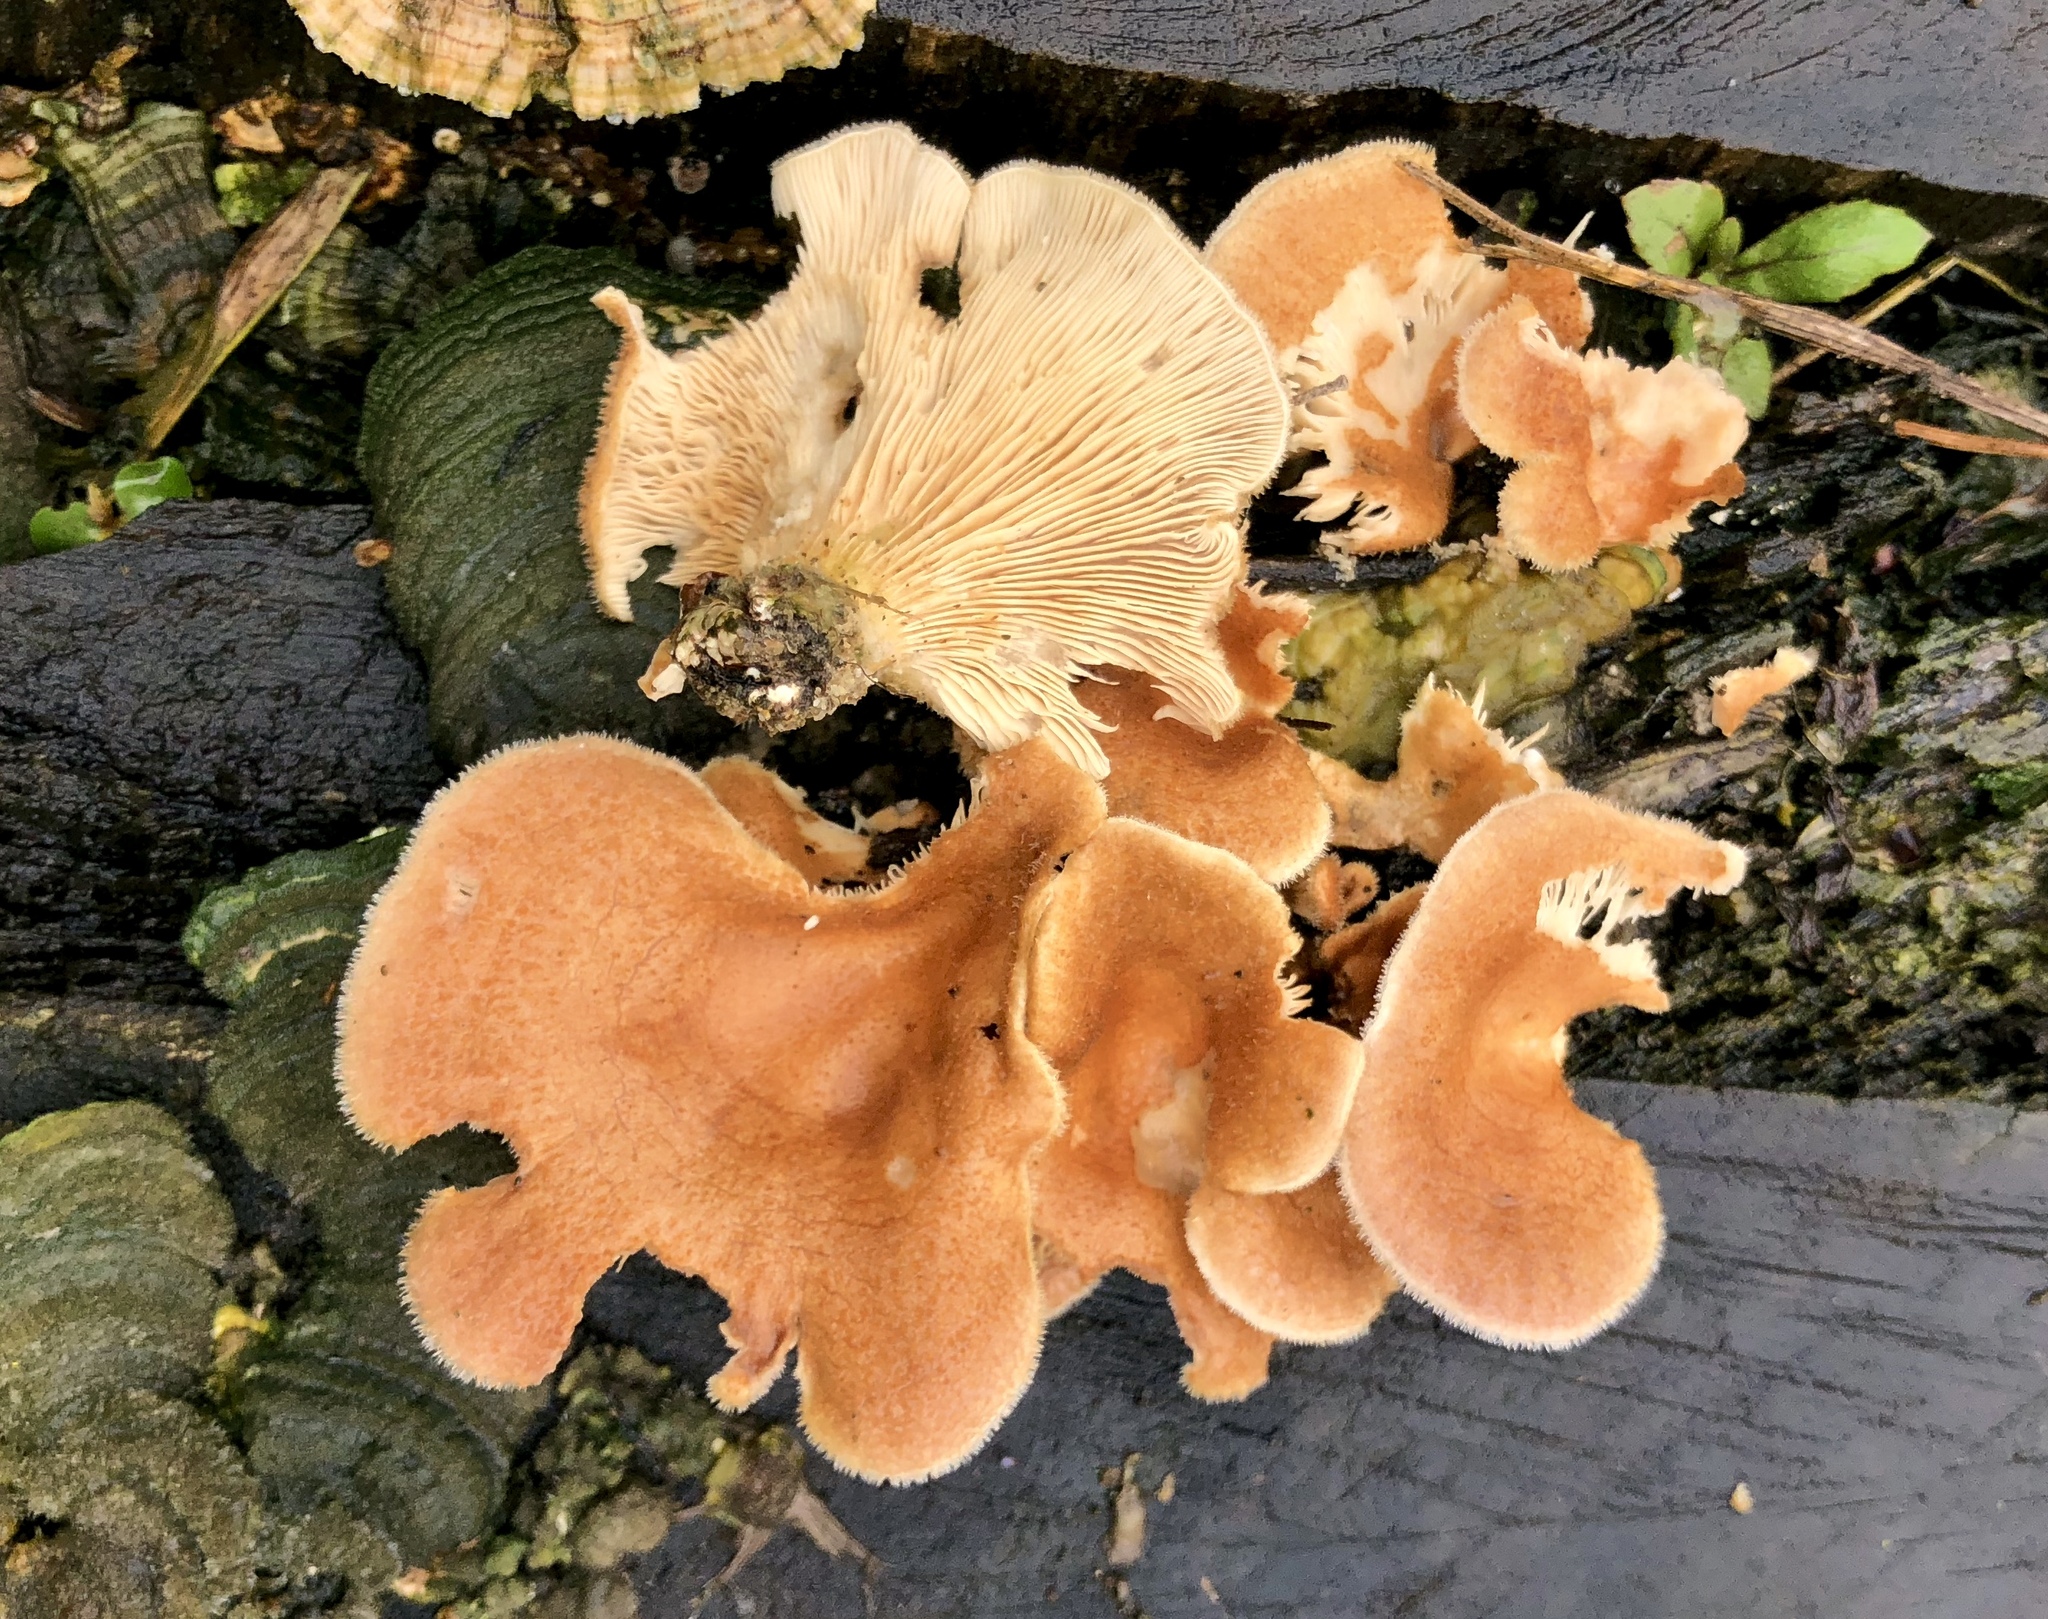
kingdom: Fungi
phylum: Basidiomycota
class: Agaricomycetes
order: Polyporales
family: Panaceae
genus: Panus
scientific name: Panus neostrigosus
